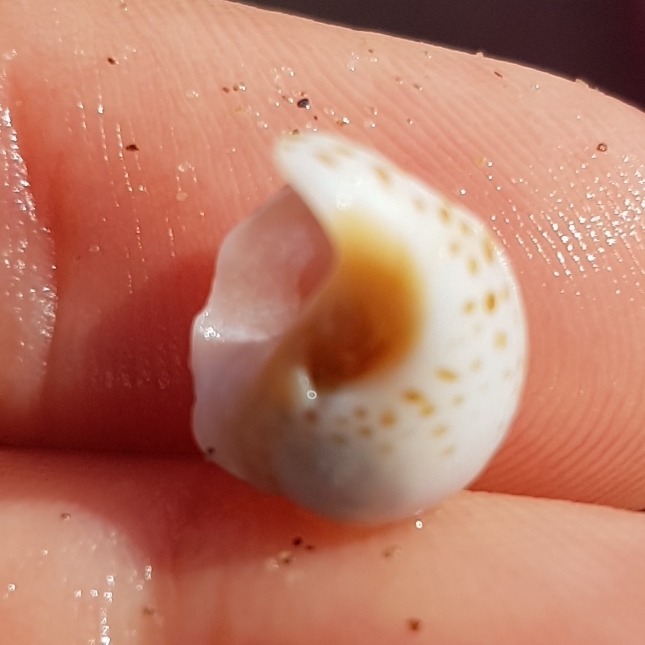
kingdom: Animalia
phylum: Mollusca
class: Gastropoda
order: Littorinimorpha
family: Naticidae
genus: Naticarius
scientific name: Naticarius stercusmuscarum
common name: Fly-speck moonsnail
